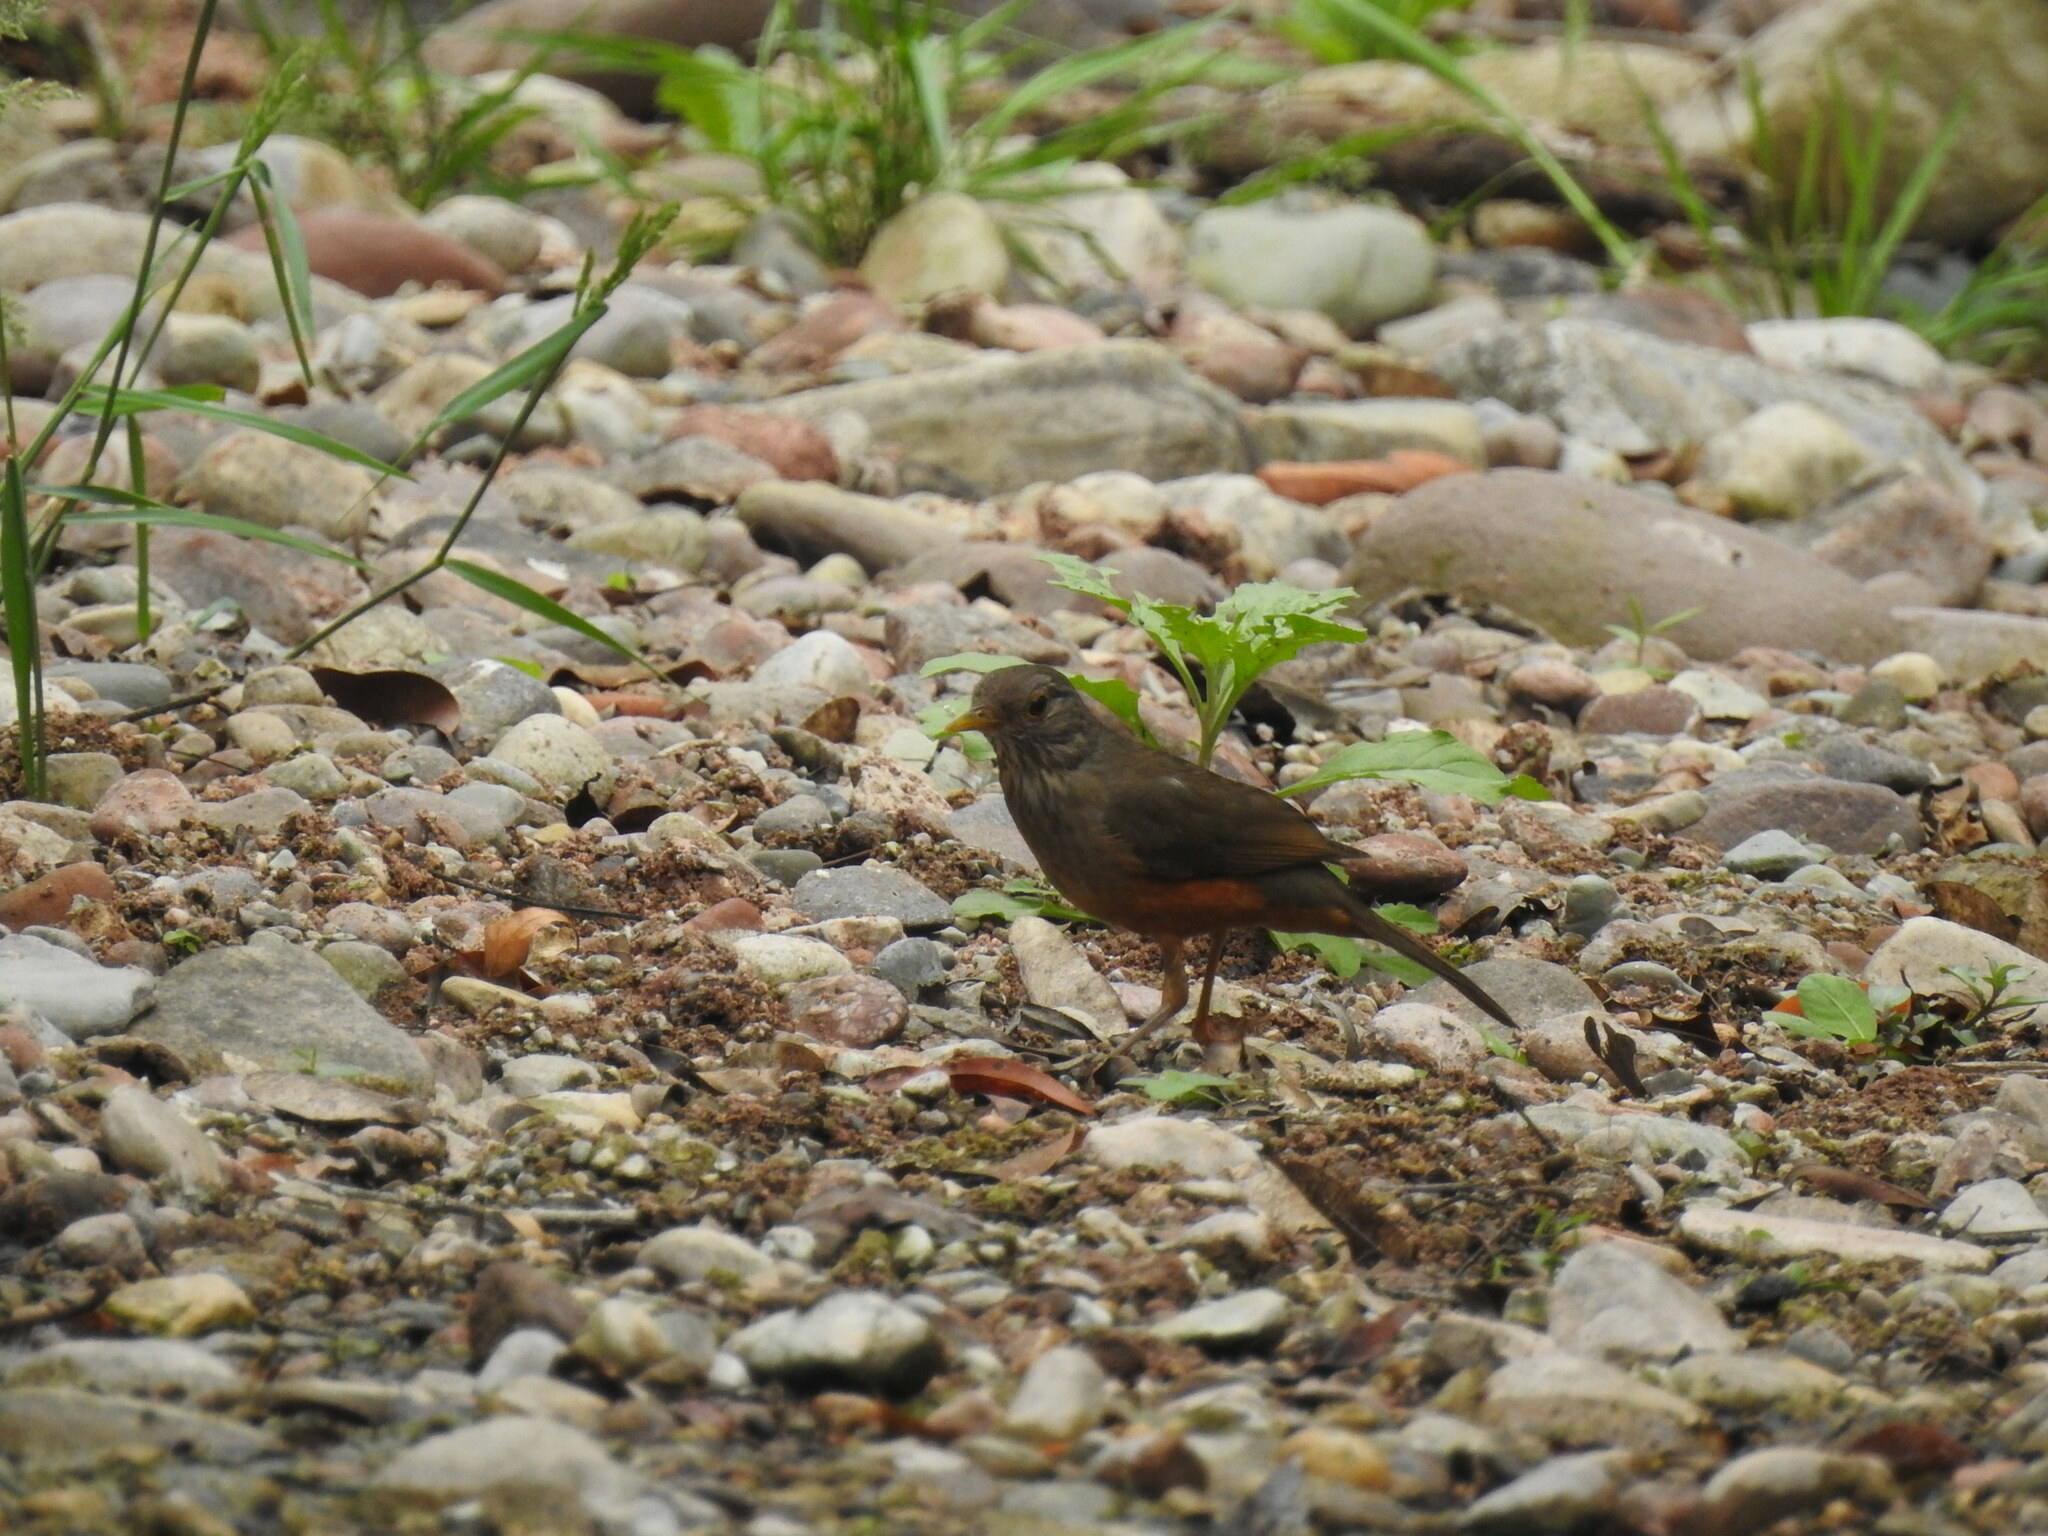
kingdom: Animalia
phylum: Chordata
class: Aves
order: Passeriformes
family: Turdidae
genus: Turdus
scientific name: Turdus rufiventris
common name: Rufous-bellied thrush
